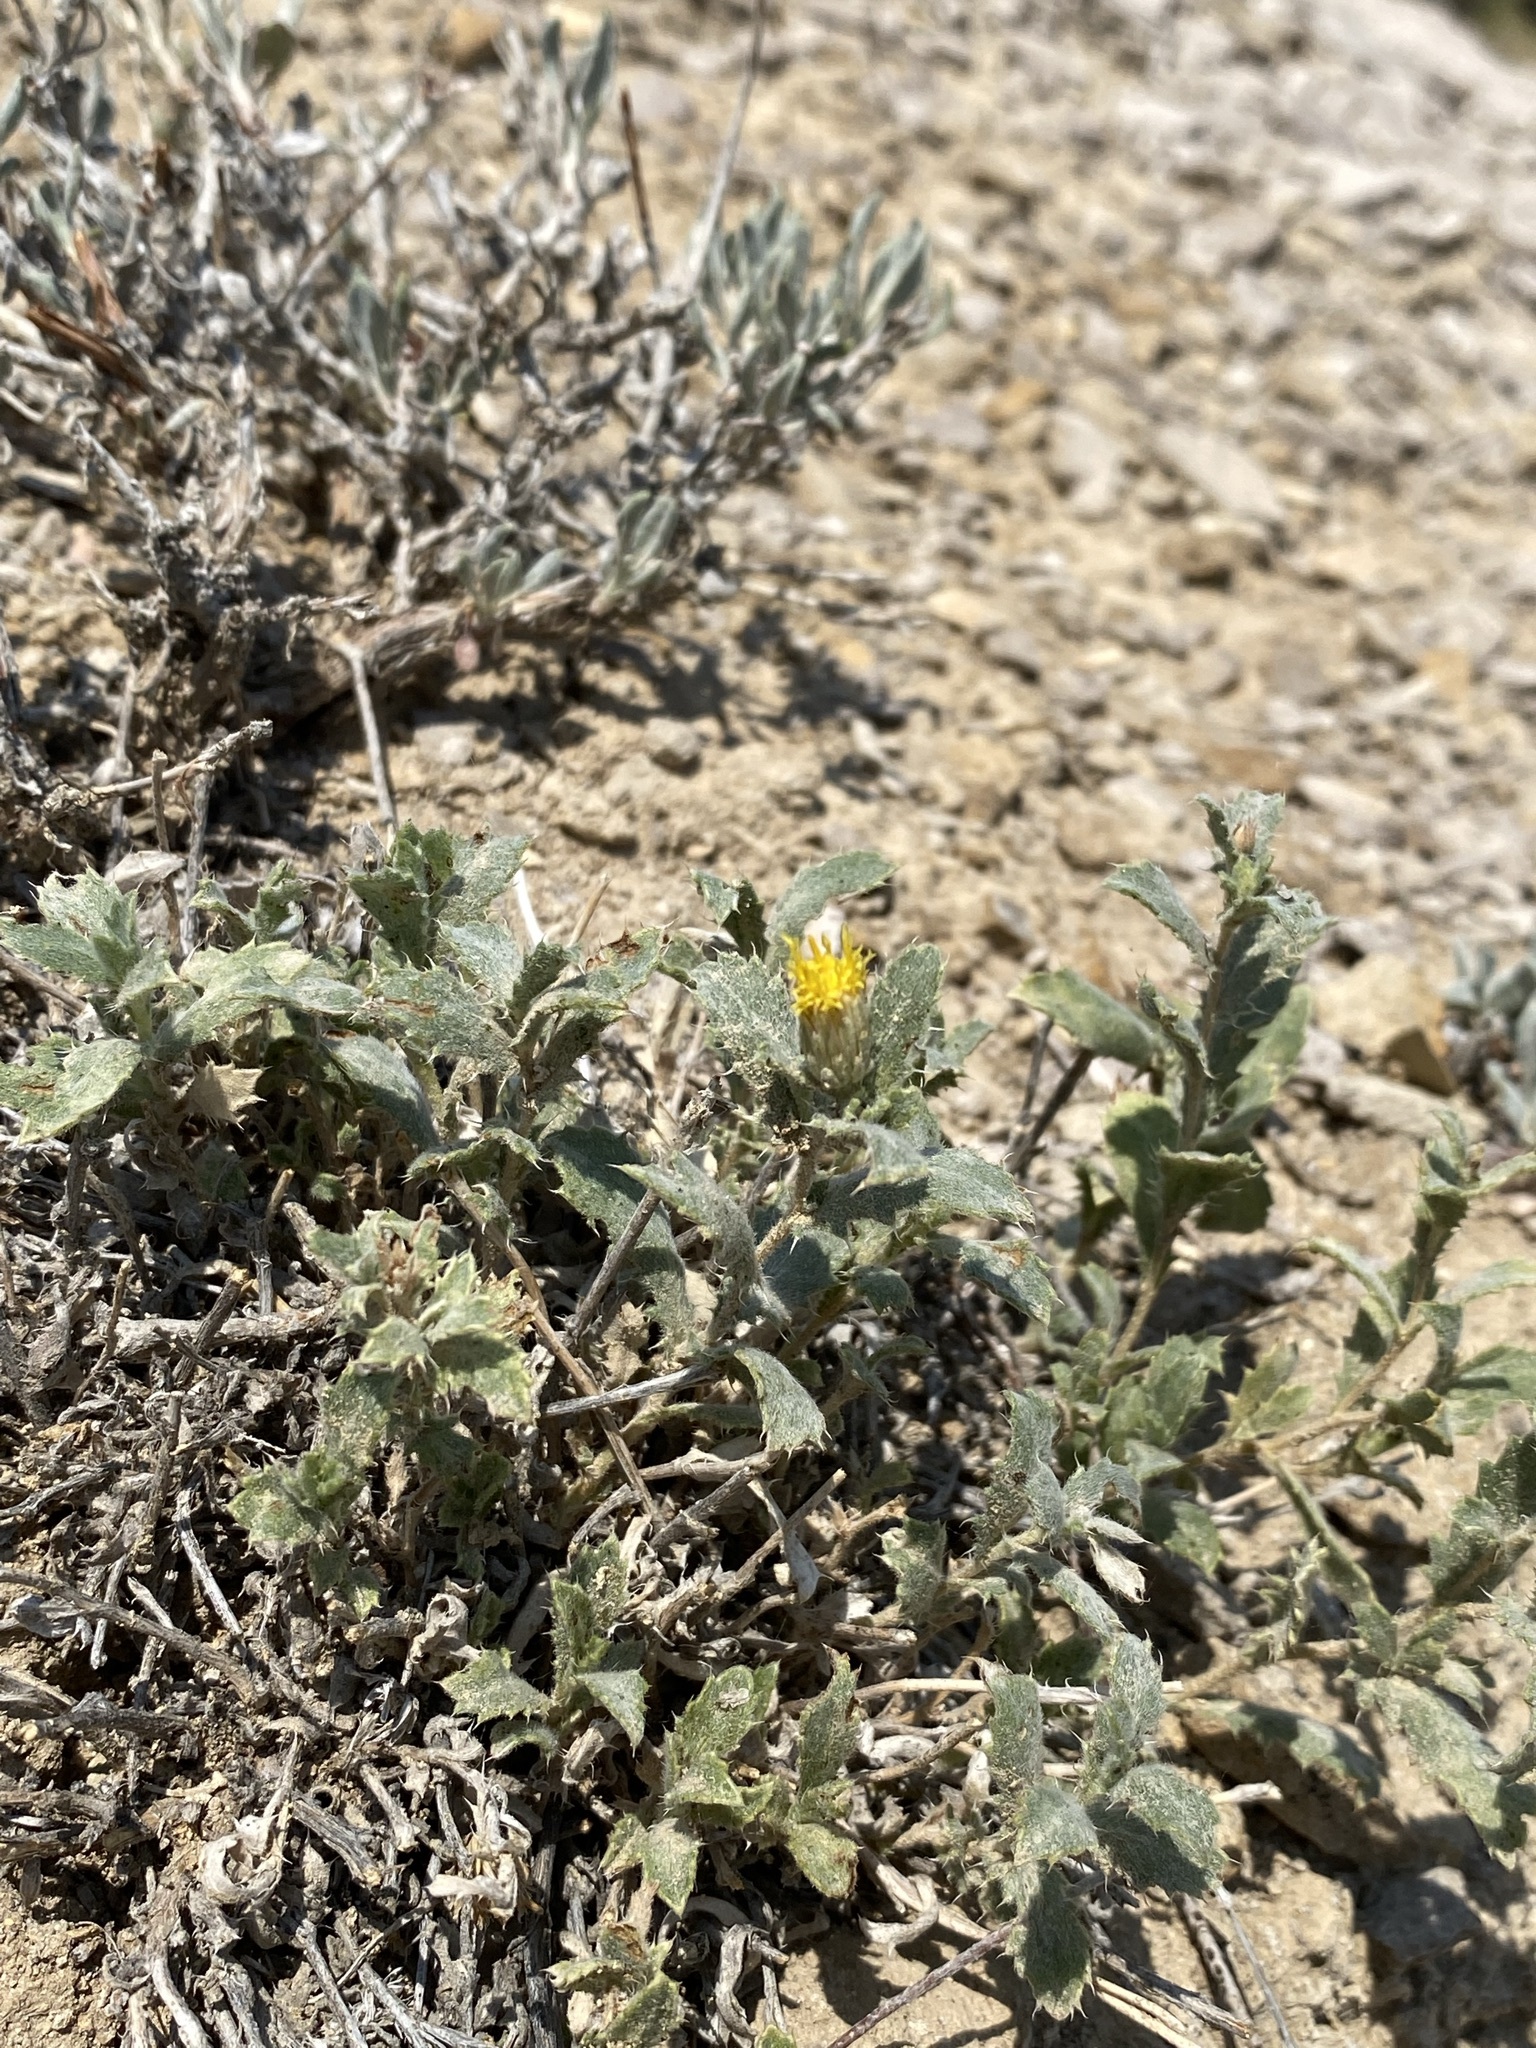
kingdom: Plantae
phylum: Tracheophyta
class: Magnoliopsida
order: Asterales
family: Asteraceae
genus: Xanthisma
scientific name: Xanthisma grindelioides
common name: Goldenweed
